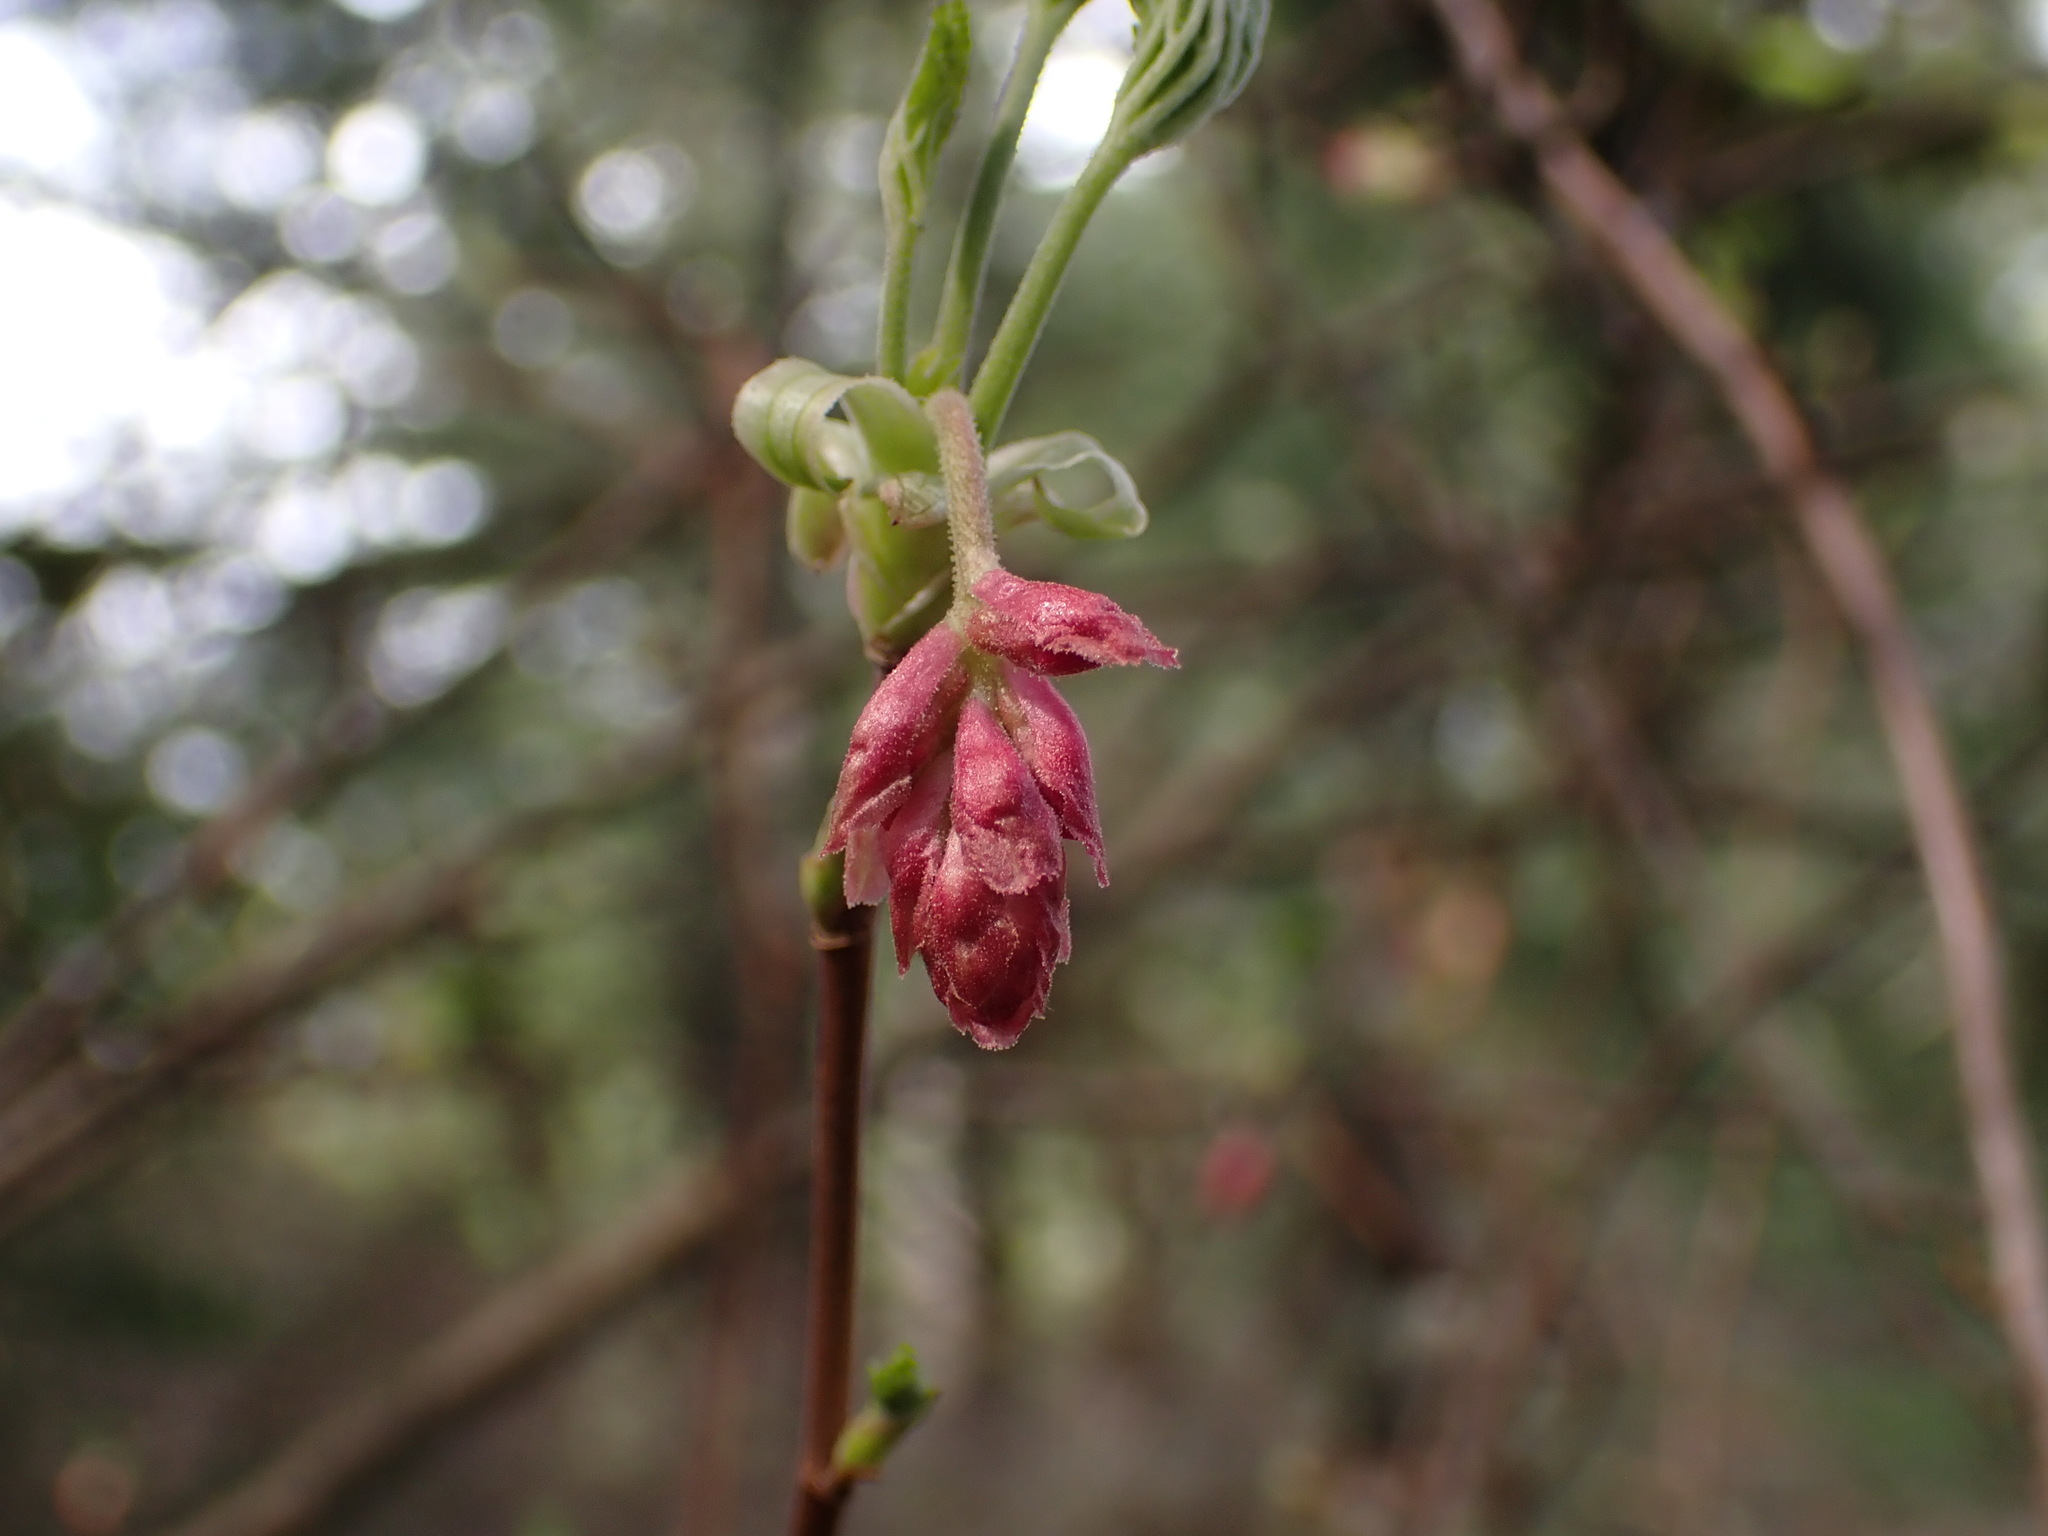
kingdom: Plantae
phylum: Tracheophyta
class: Magnoliopsida
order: Saxifragales
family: Grossulariaceae
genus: Ribes
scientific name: Ribes sanguineum
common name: Flowering currant
